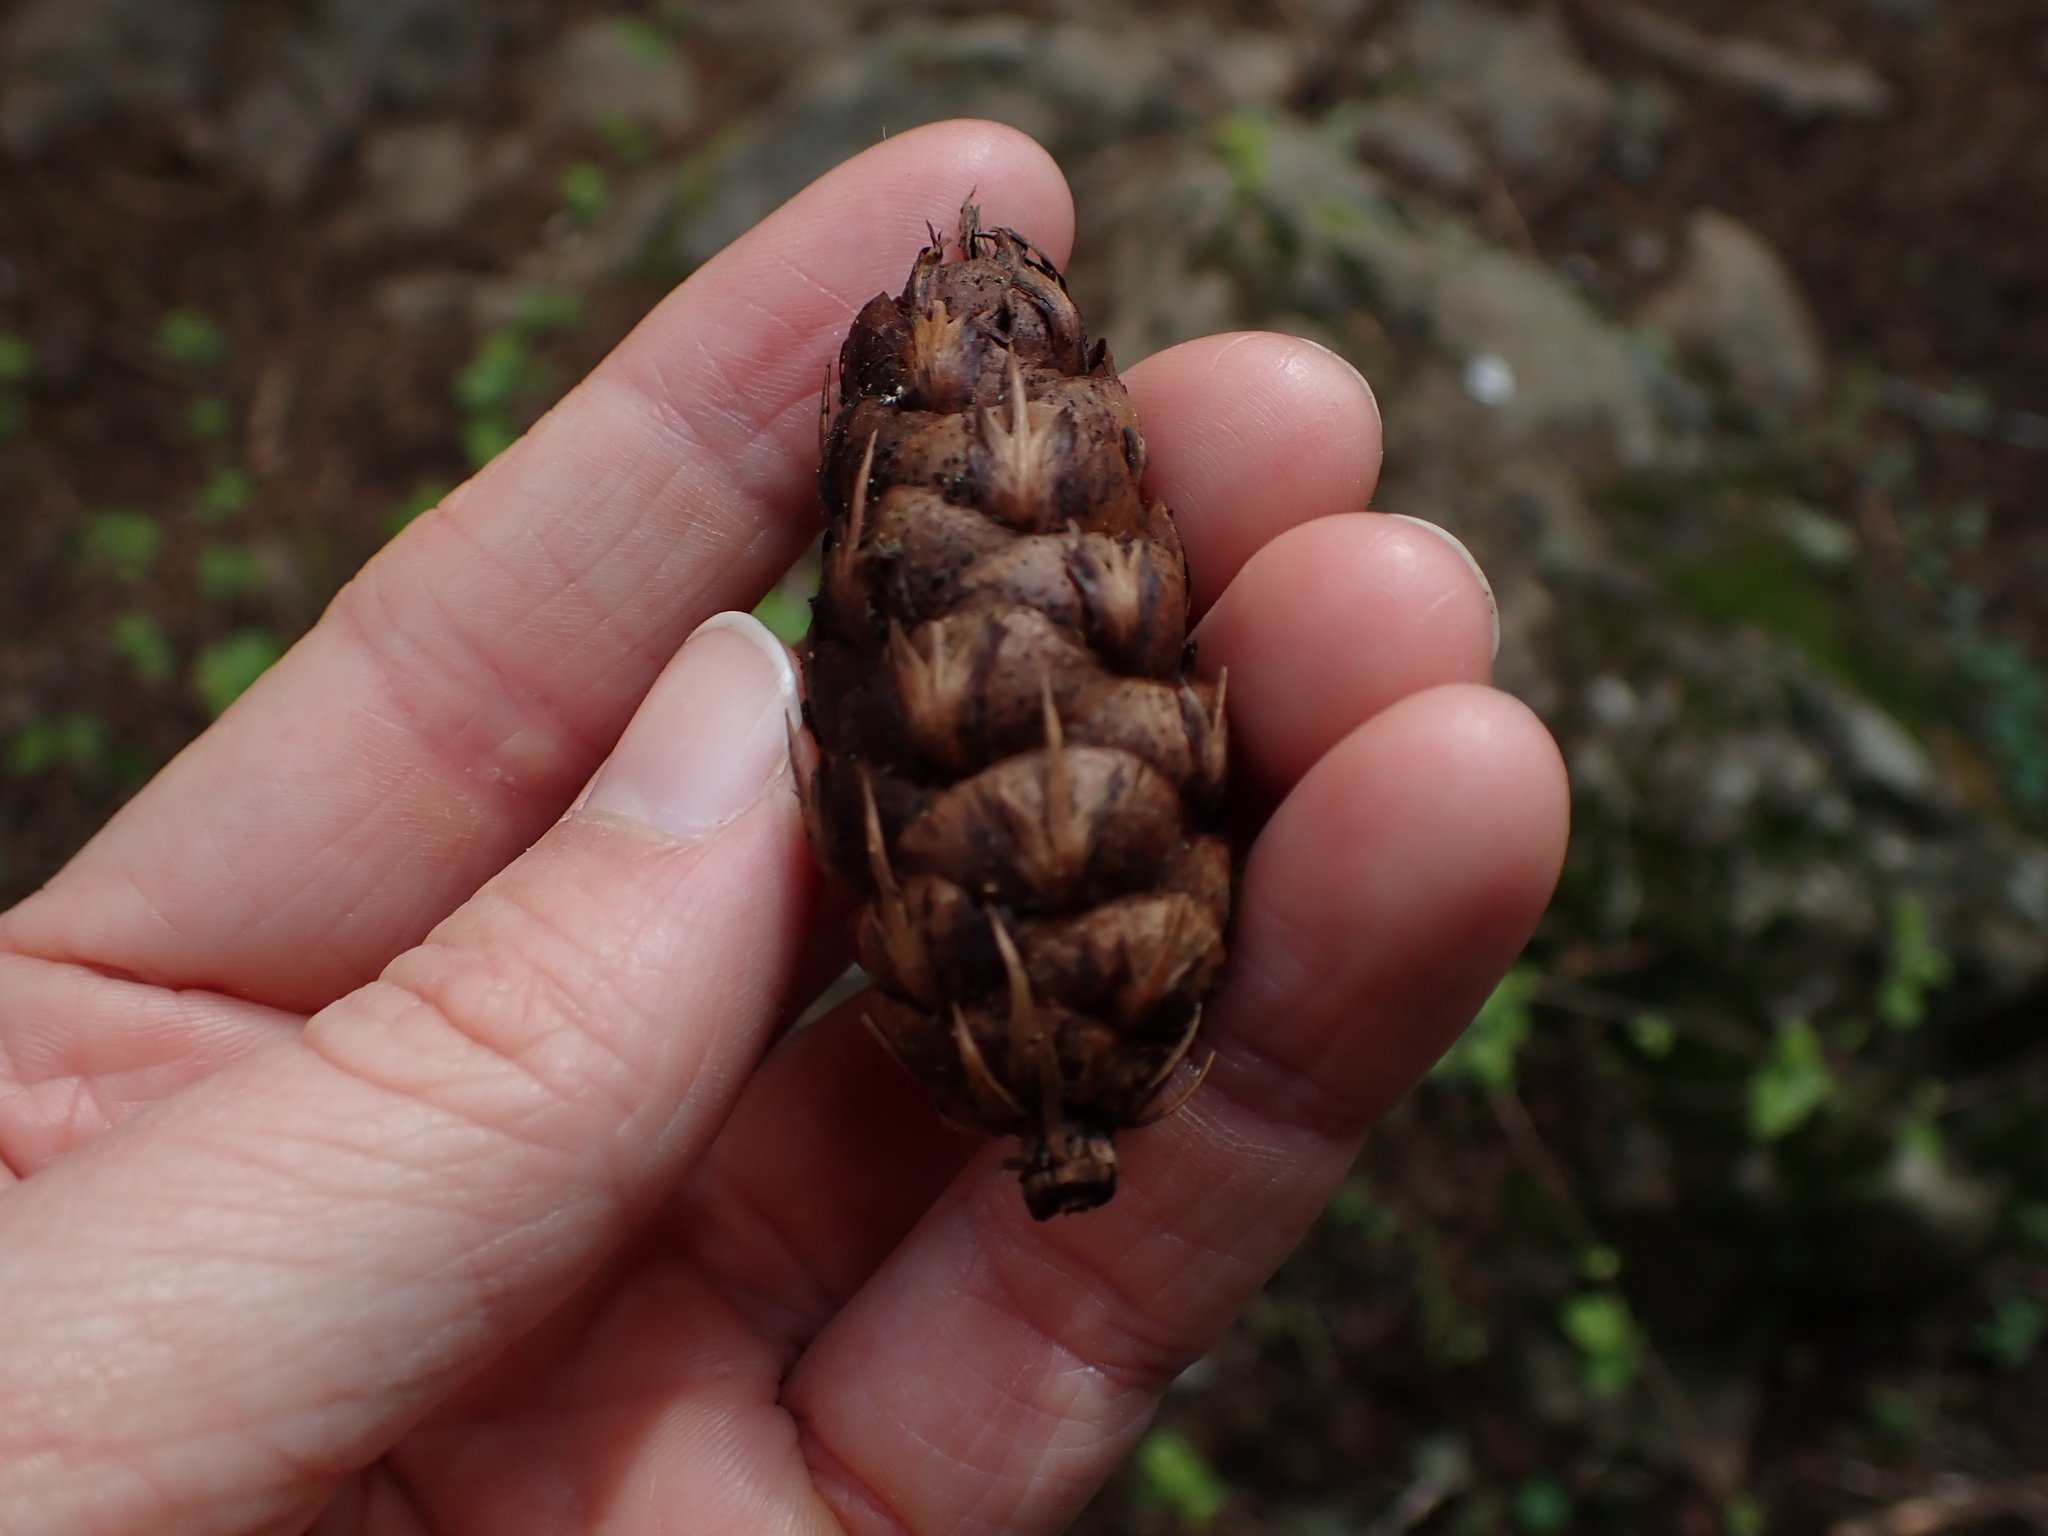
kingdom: Plantae
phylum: Tracheophyta
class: Pinopsida
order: Pinales
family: Pinaceae
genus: Pseudotsuga
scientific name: Pseudotsuga menziesii
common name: Douglas fir
